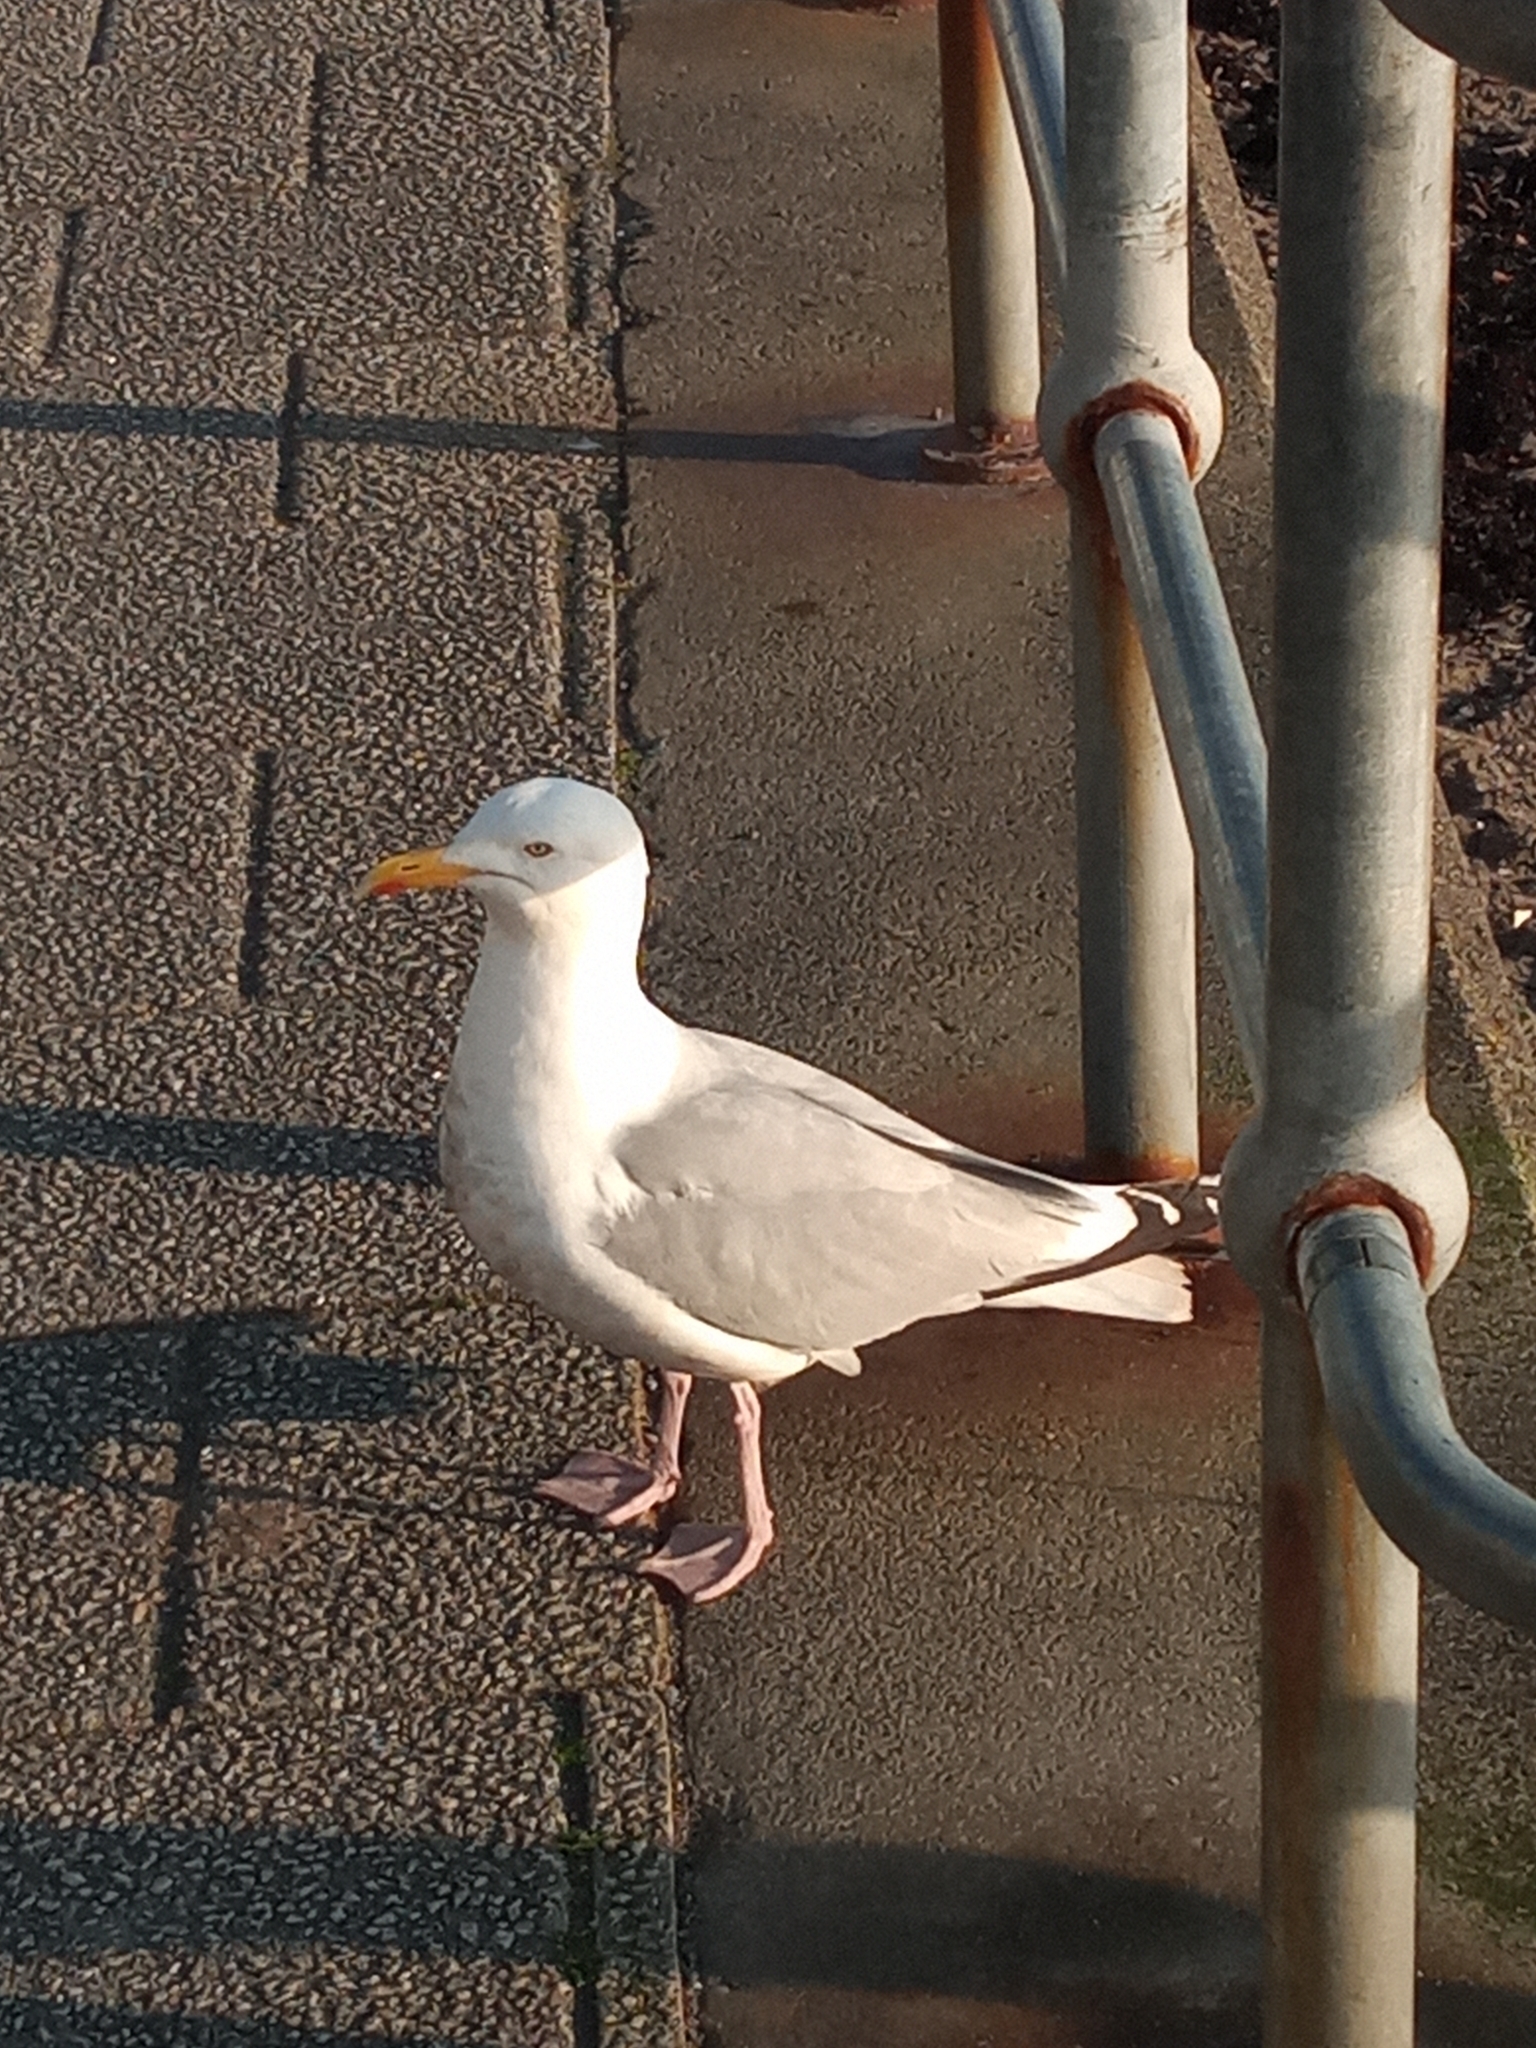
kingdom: Animalia
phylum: Chordata
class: Aves
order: Charadriiformes
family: Laridae
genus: Larus
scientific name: Larus argentatus
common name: Herring gull
